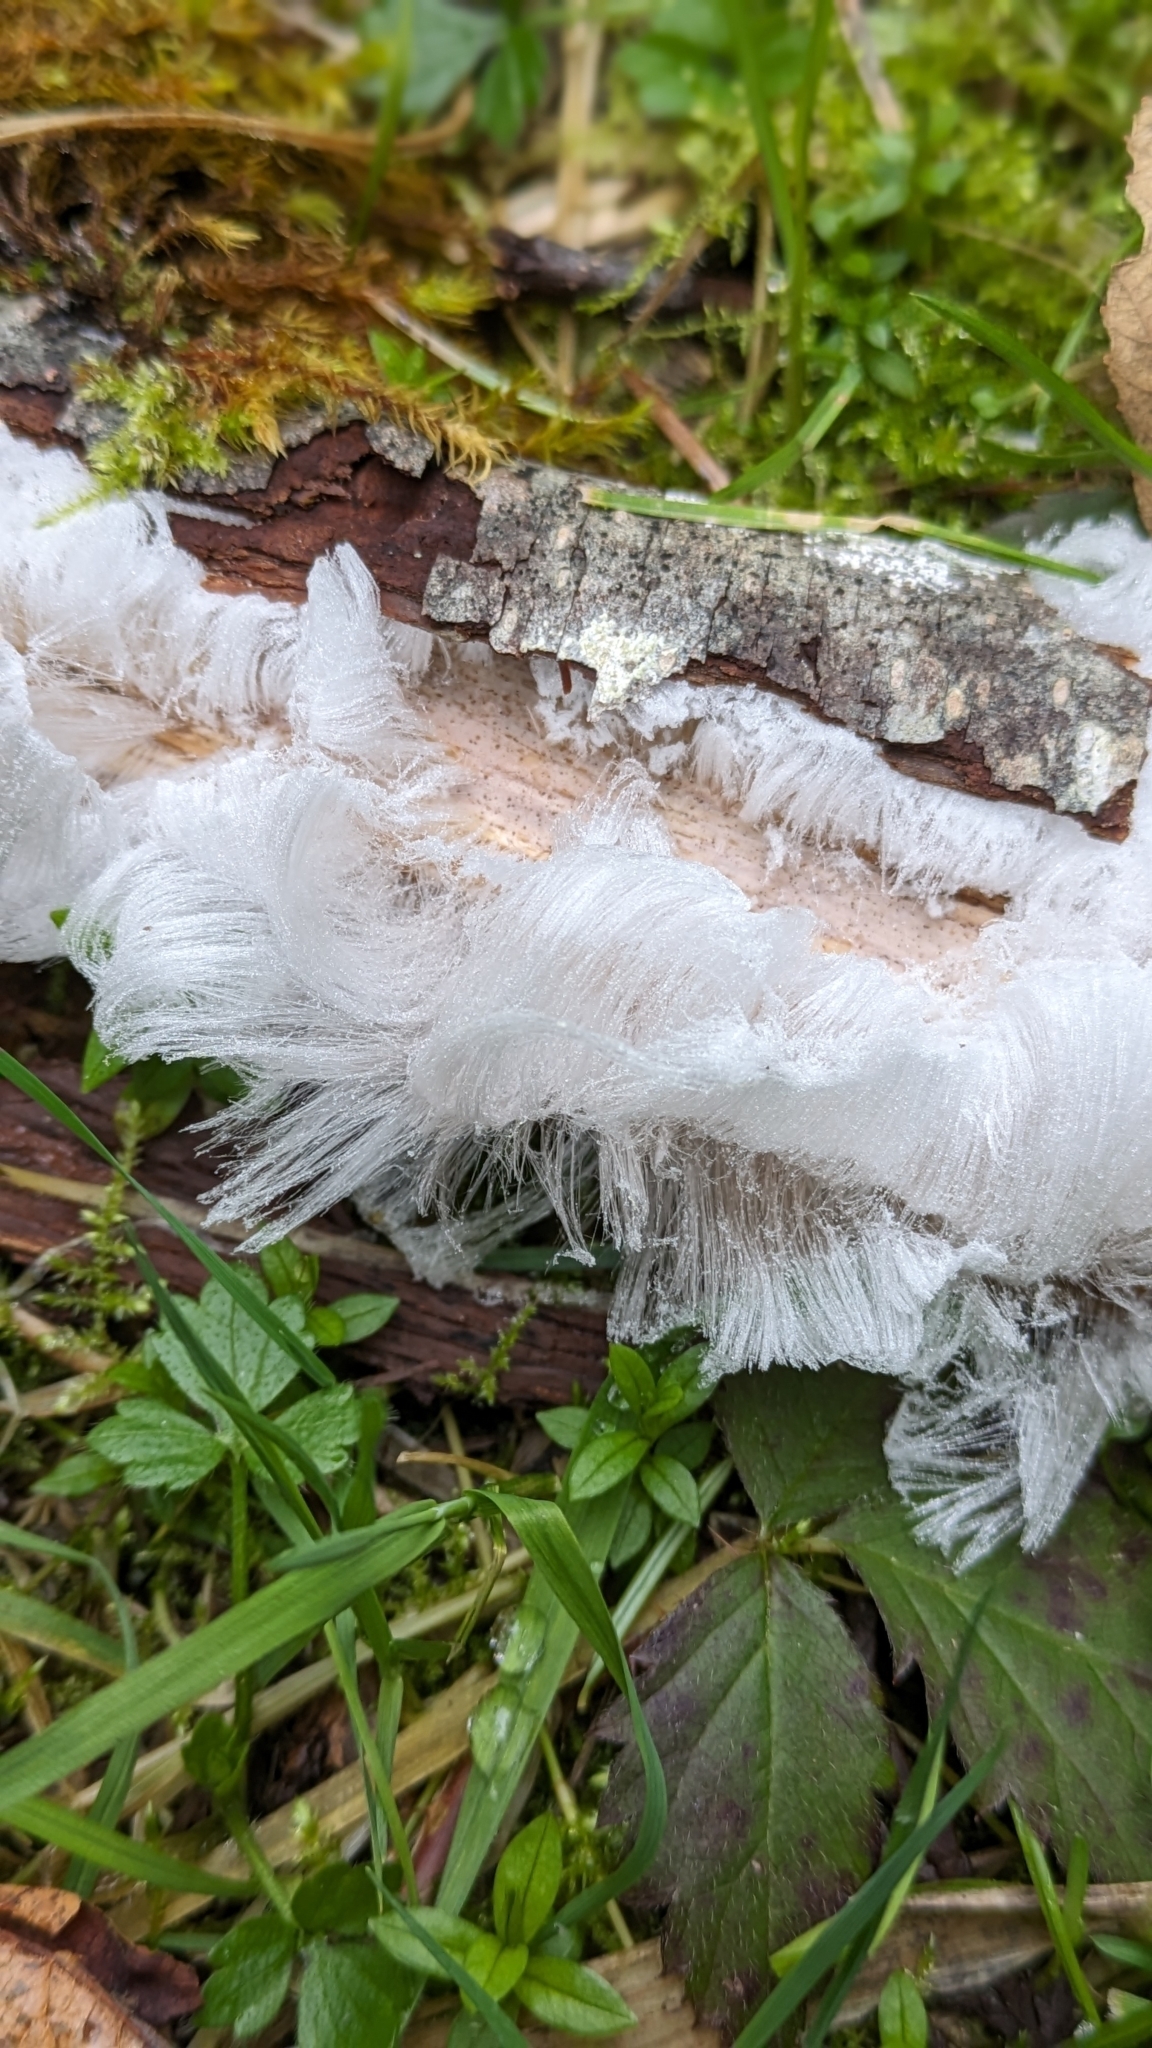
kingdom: Fungi
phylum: Basidiomycota
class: Agaricomycetes
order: Auriculariales
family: Auriculariaceae
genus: Exidiopsis
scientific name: Exidiopsis effusa
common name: Hair ice crust
